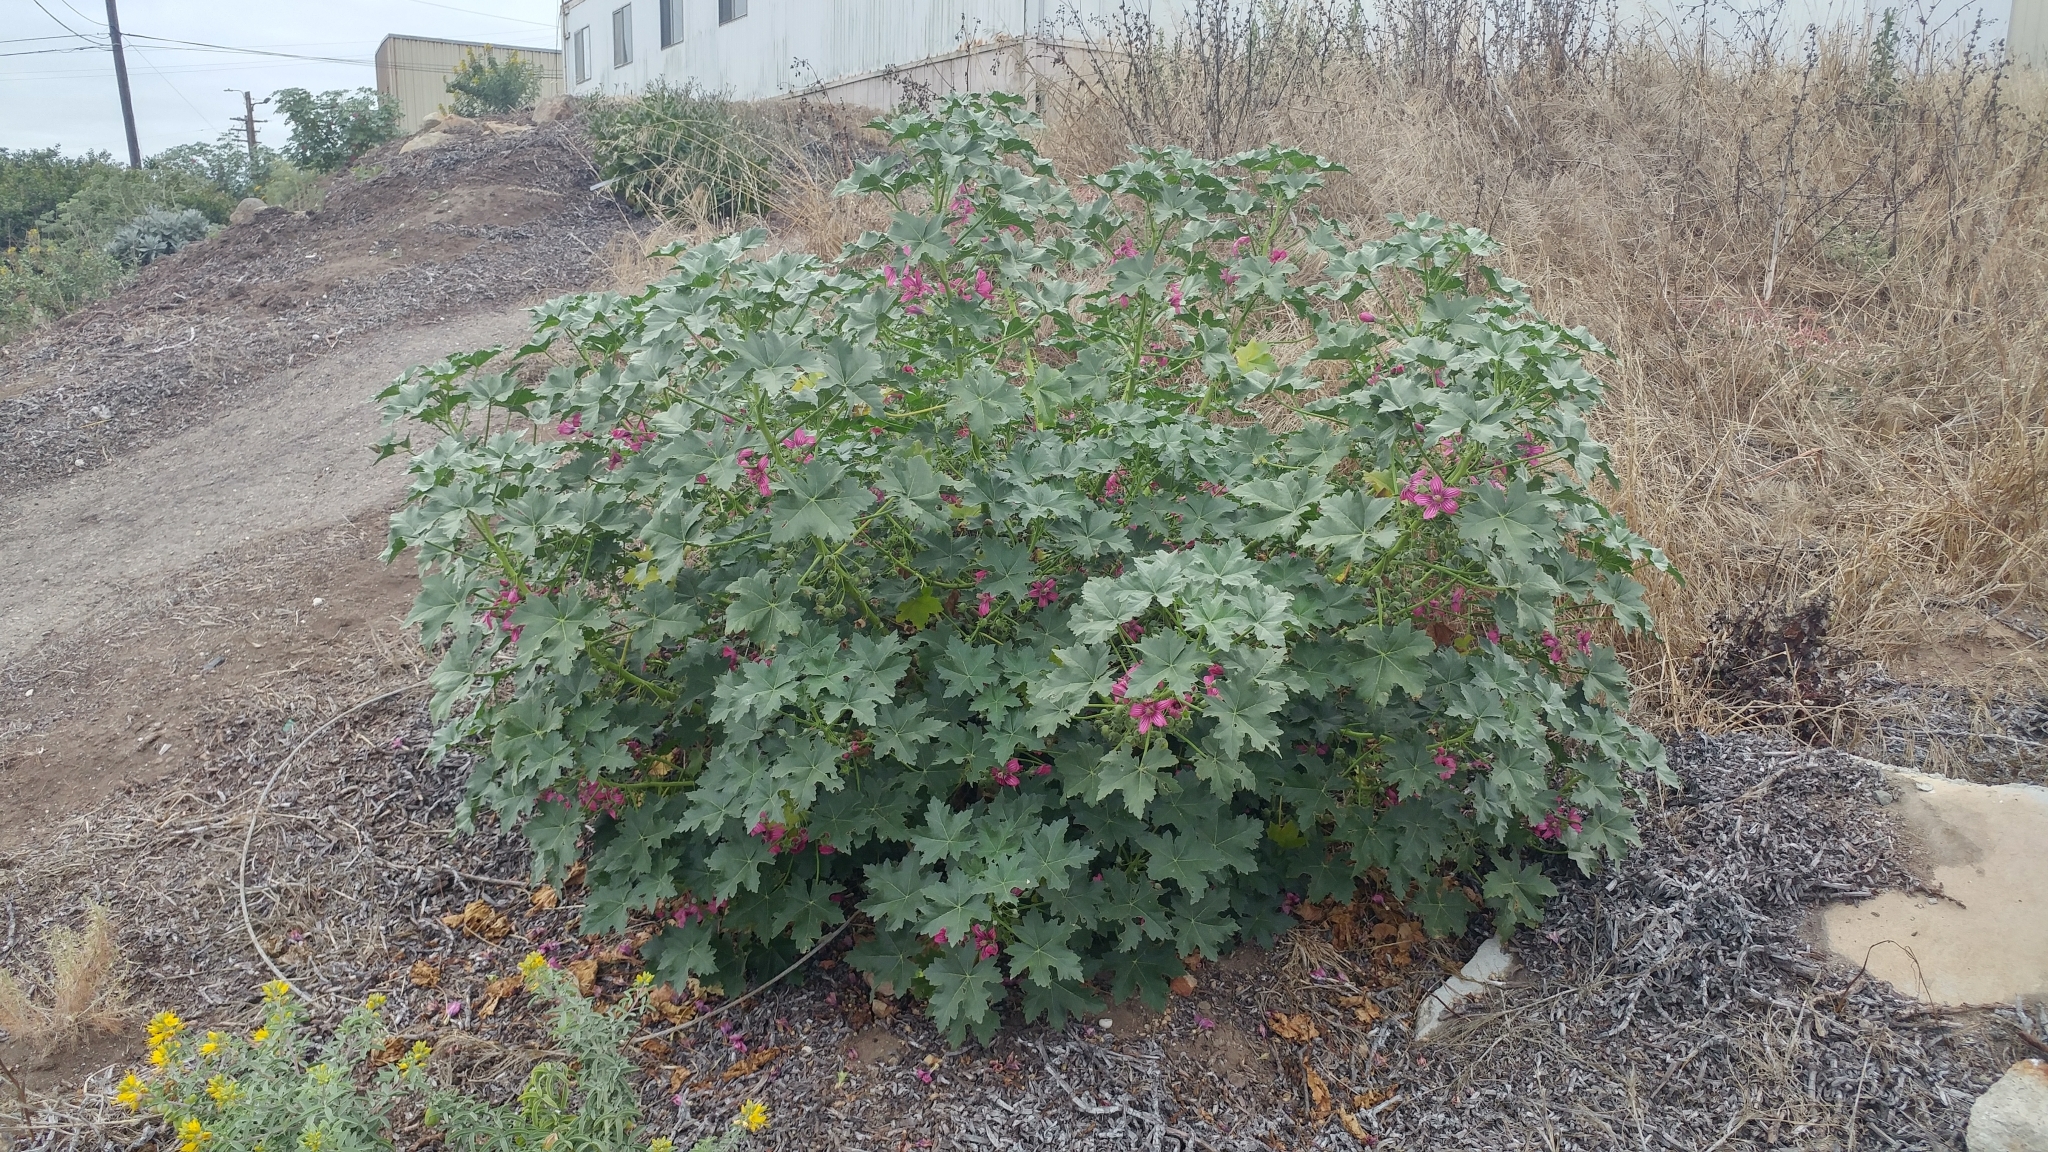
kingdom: Plantae
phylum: Tracheophyta
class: Magnoliopsida
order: Malvales
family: Malvaceae
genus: Malva
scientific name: Malva assurgentiflora
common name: Island mallow
